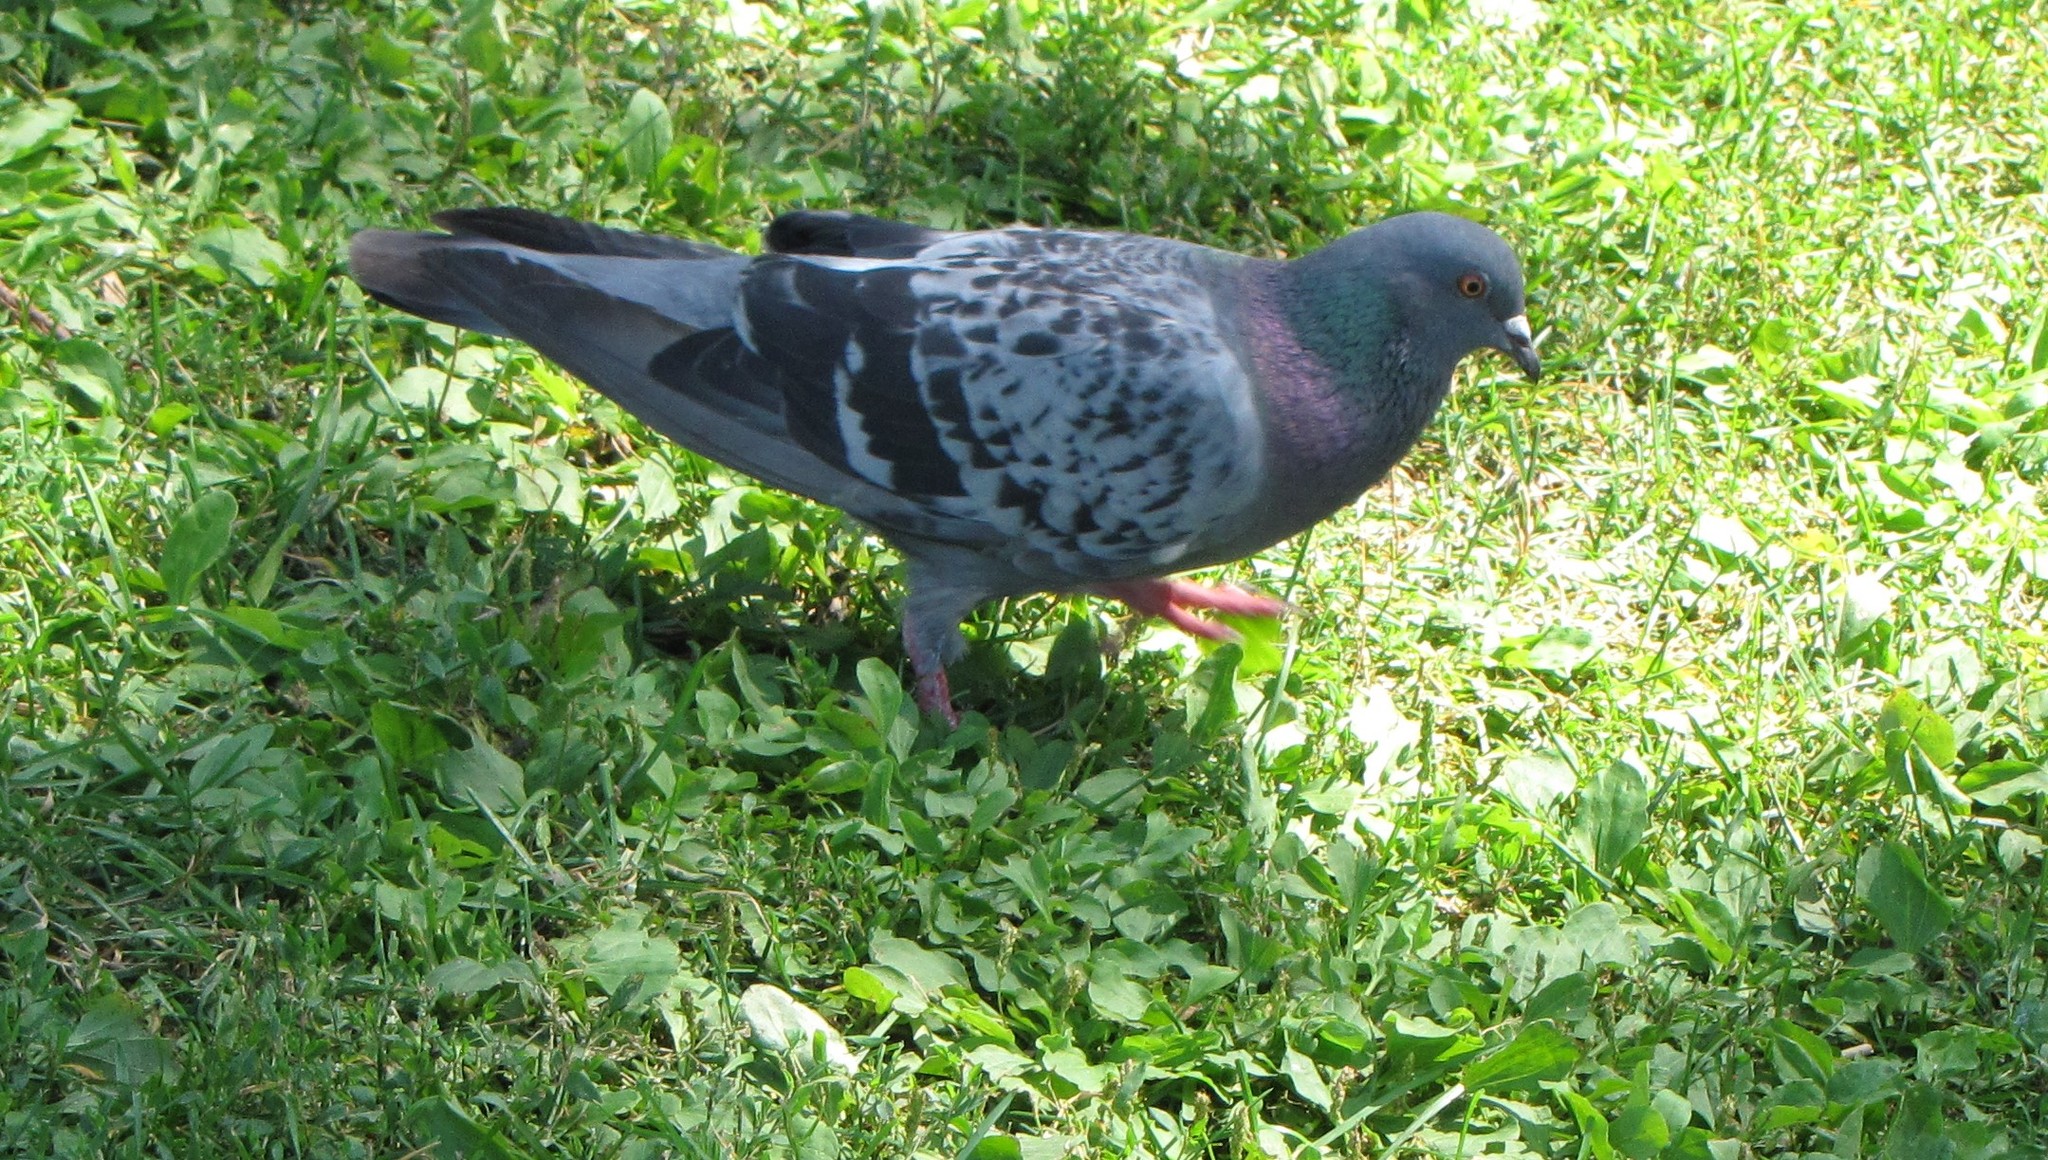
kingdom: Animalia
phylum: Chordata
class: Aves
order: Columbiformes
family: Columbidae
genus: Columba
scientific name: Columba livia
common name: Rock pigeon
